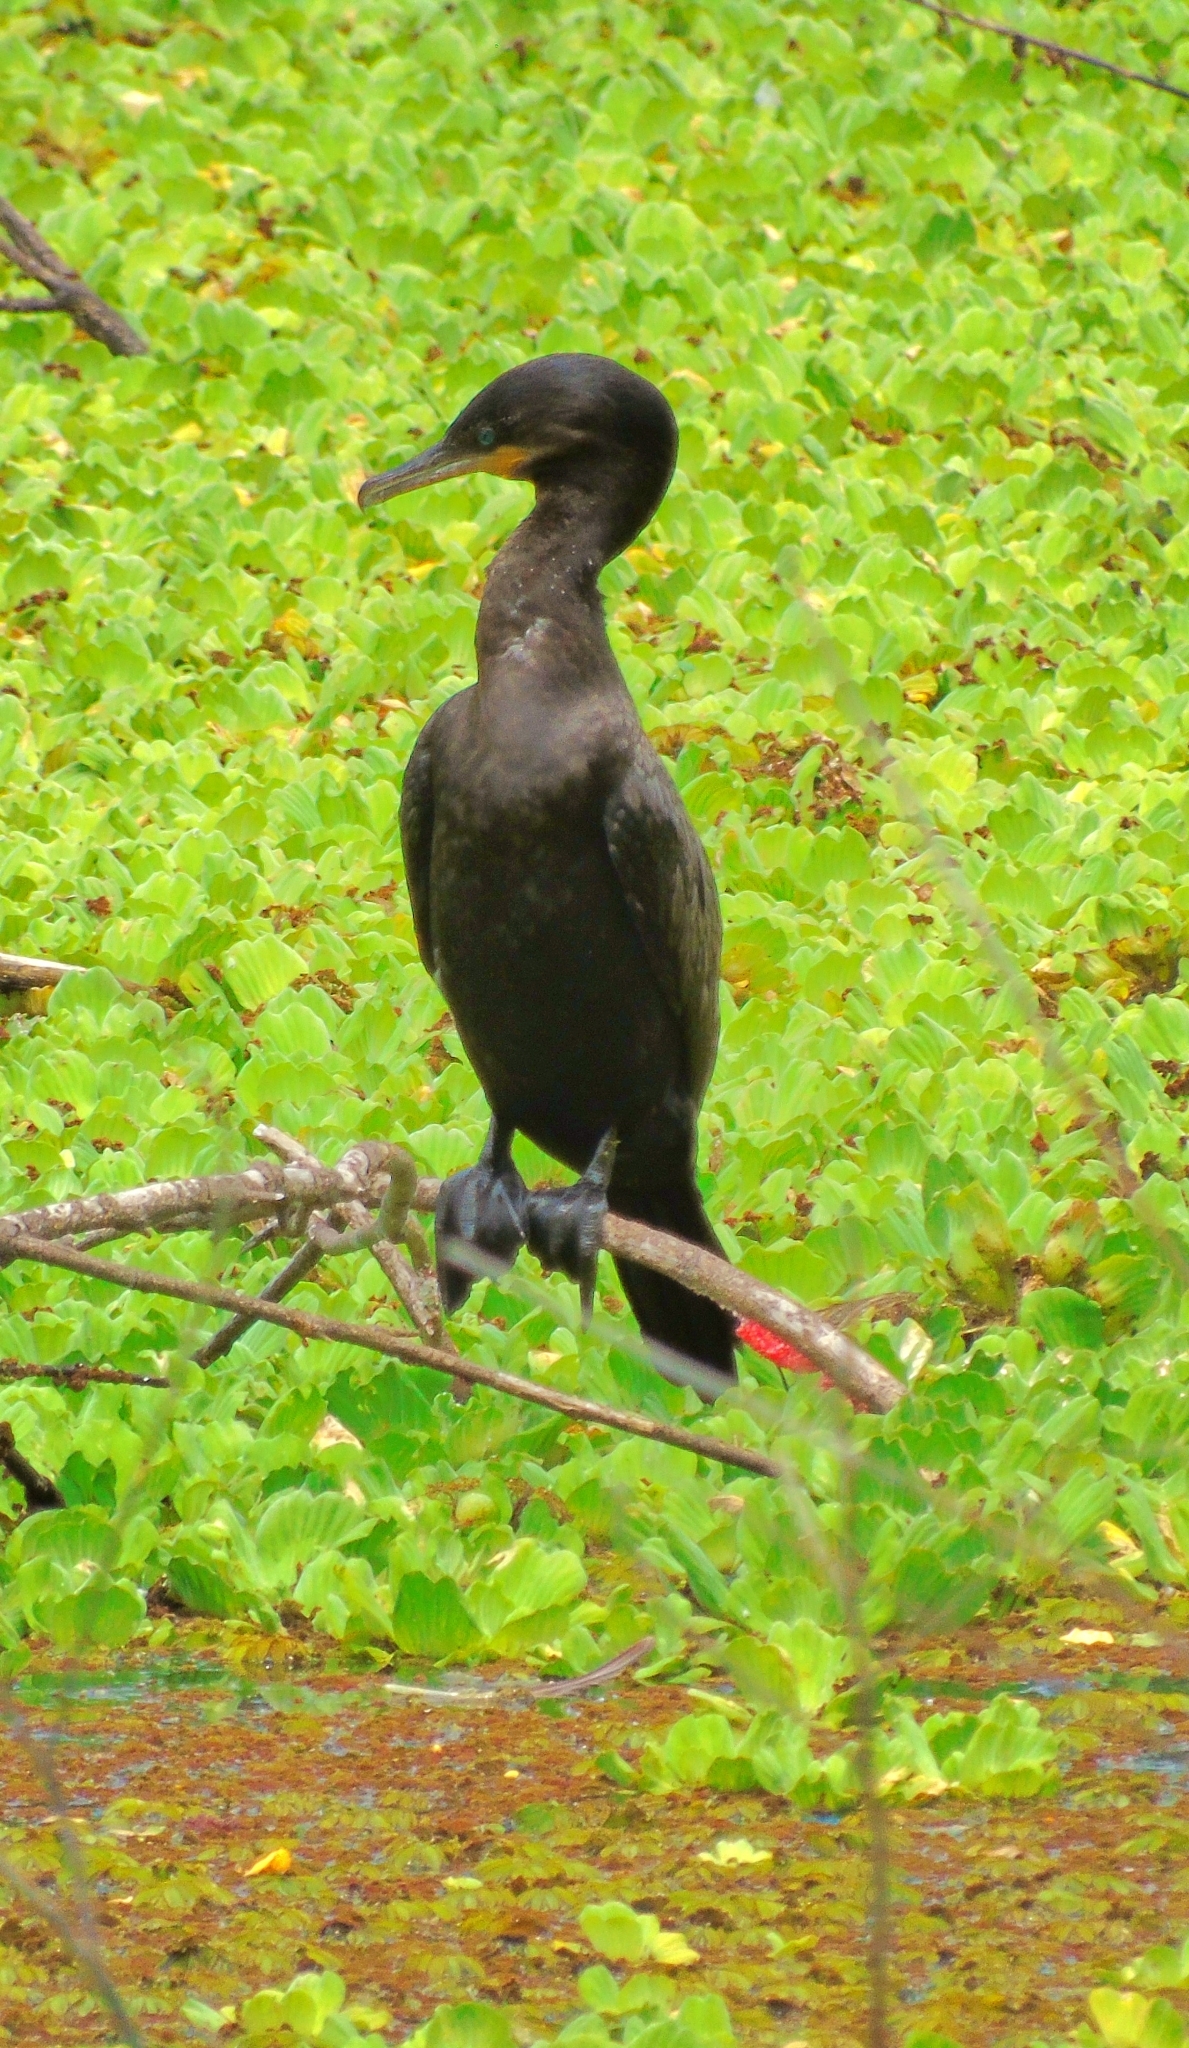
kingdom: Animalia
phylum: Chordata
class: Aves
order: Suliformes
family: Phalacrocoracidae
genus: Phalacrocorax
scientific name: Phalacrocorax brasilianus
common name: Neotropic cormorant
